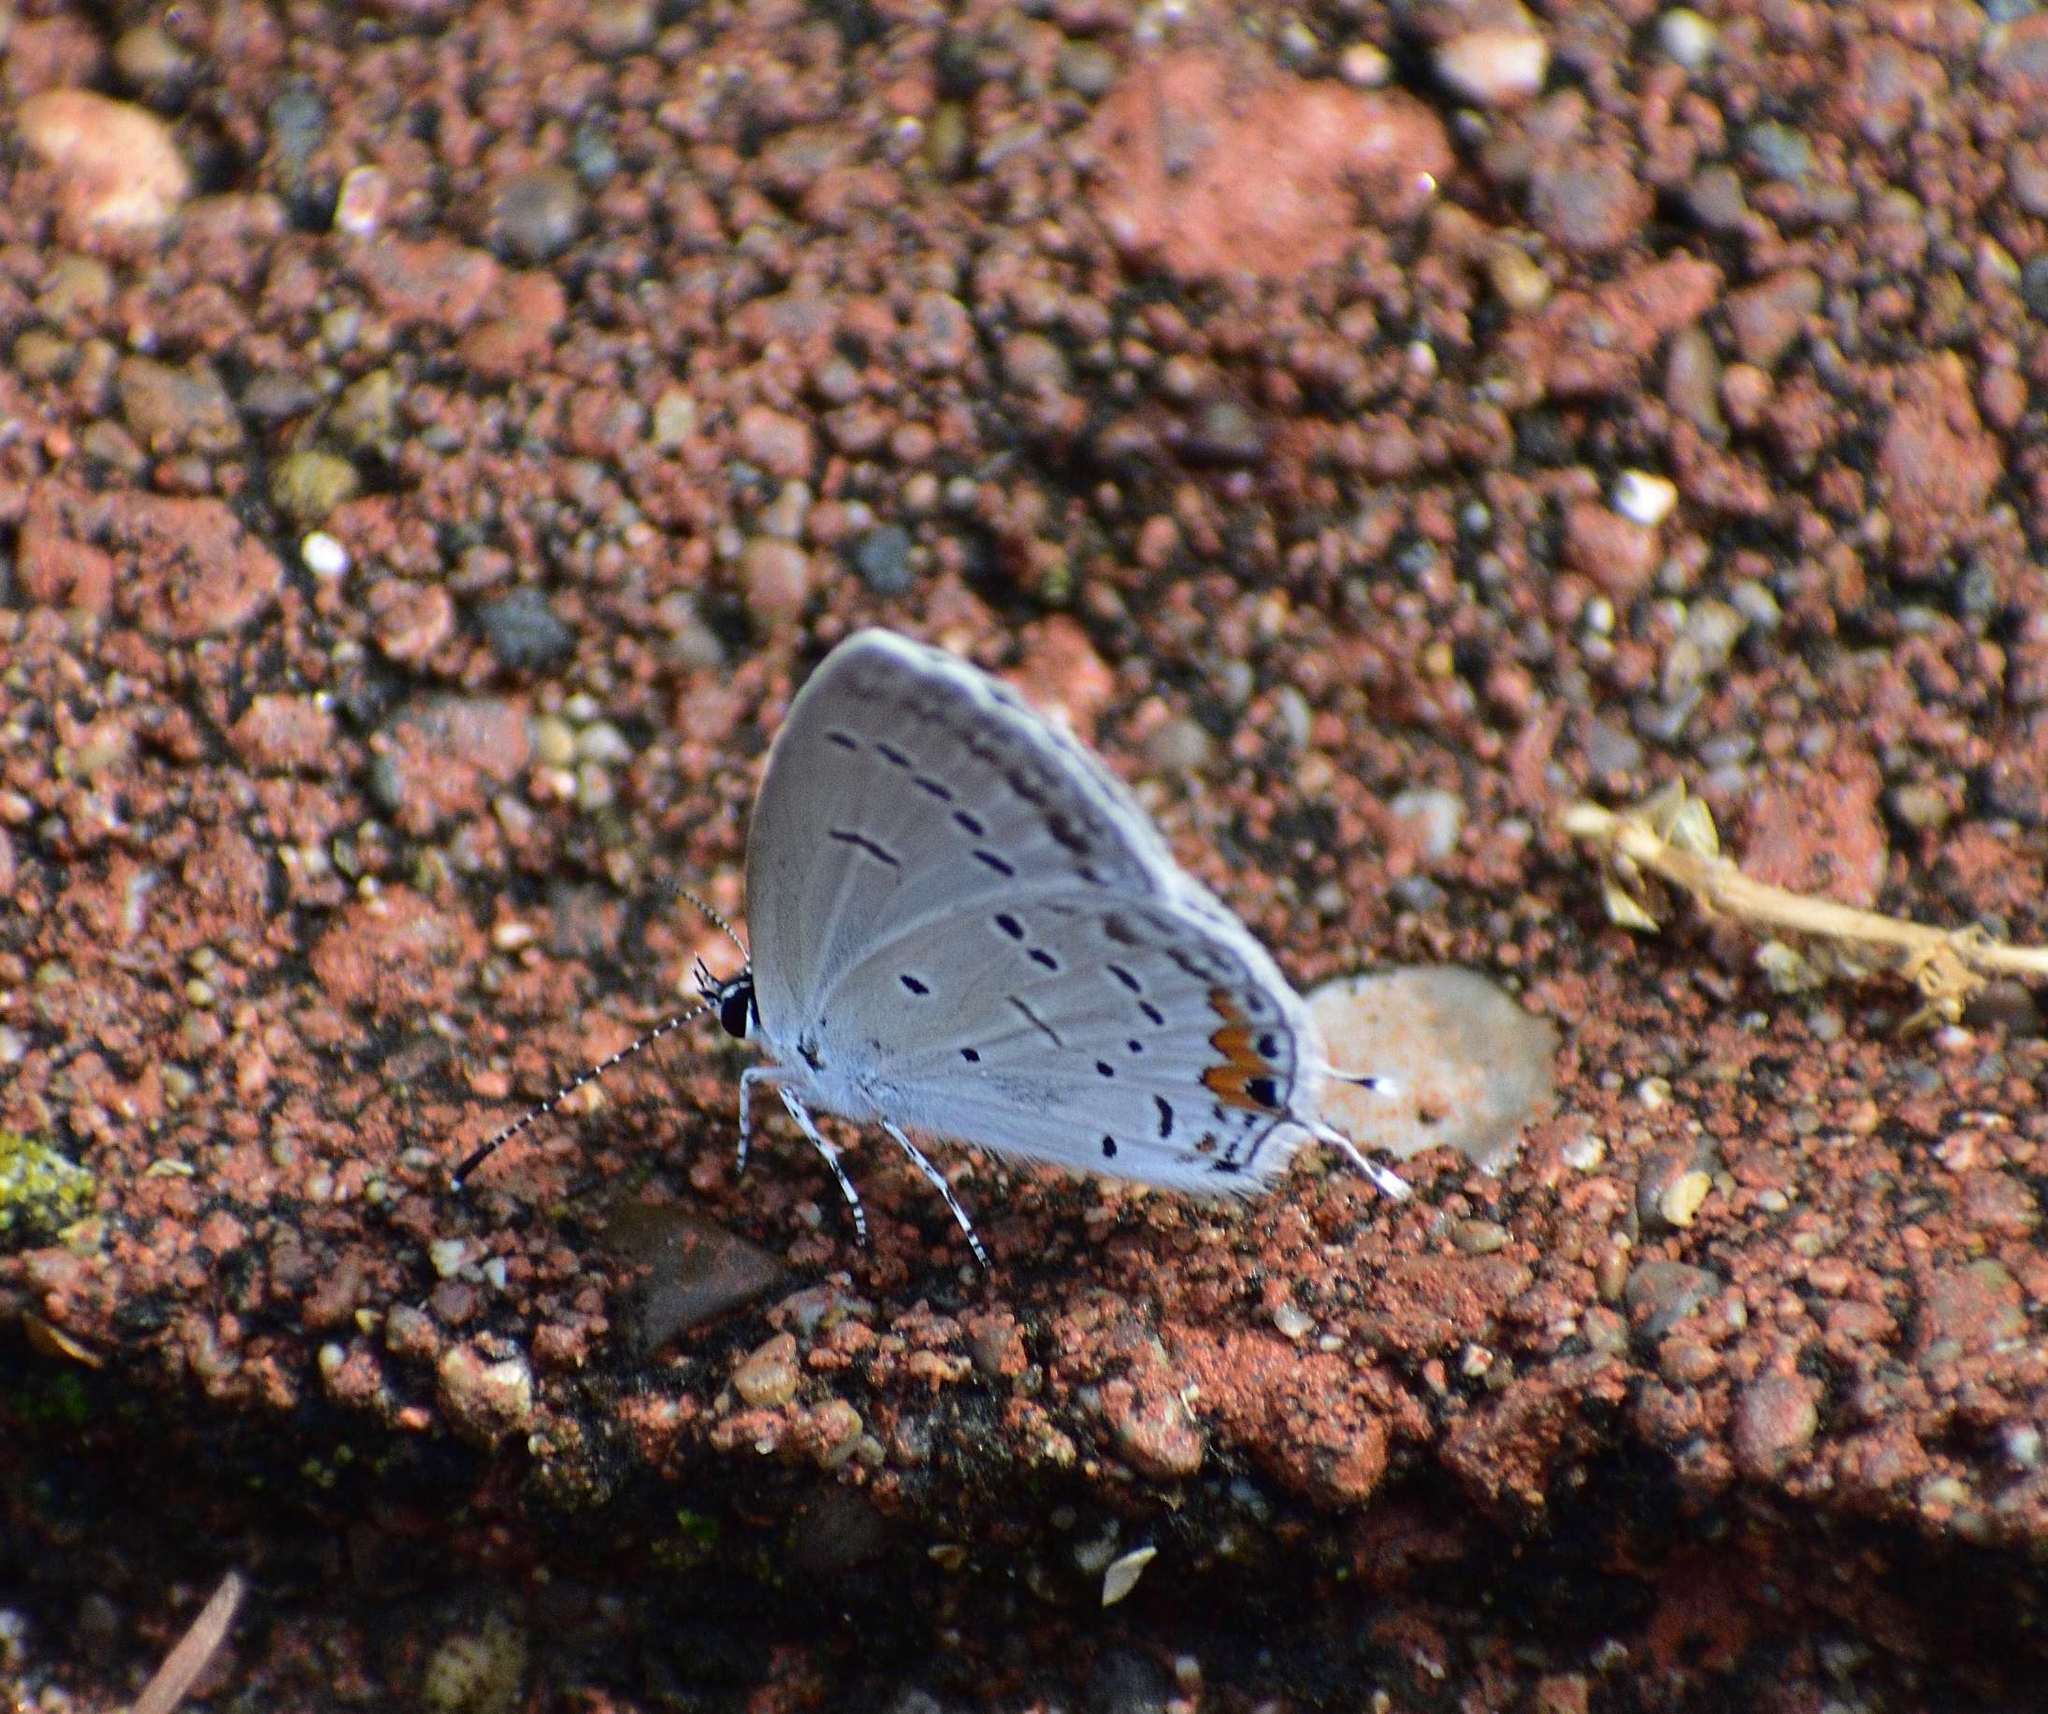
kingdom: Animalia
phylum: Arthropoda
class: Insecta
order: Lepidoptera
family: Lycaenidae
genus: Elkalyce
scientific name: Elkalyce comyntas
